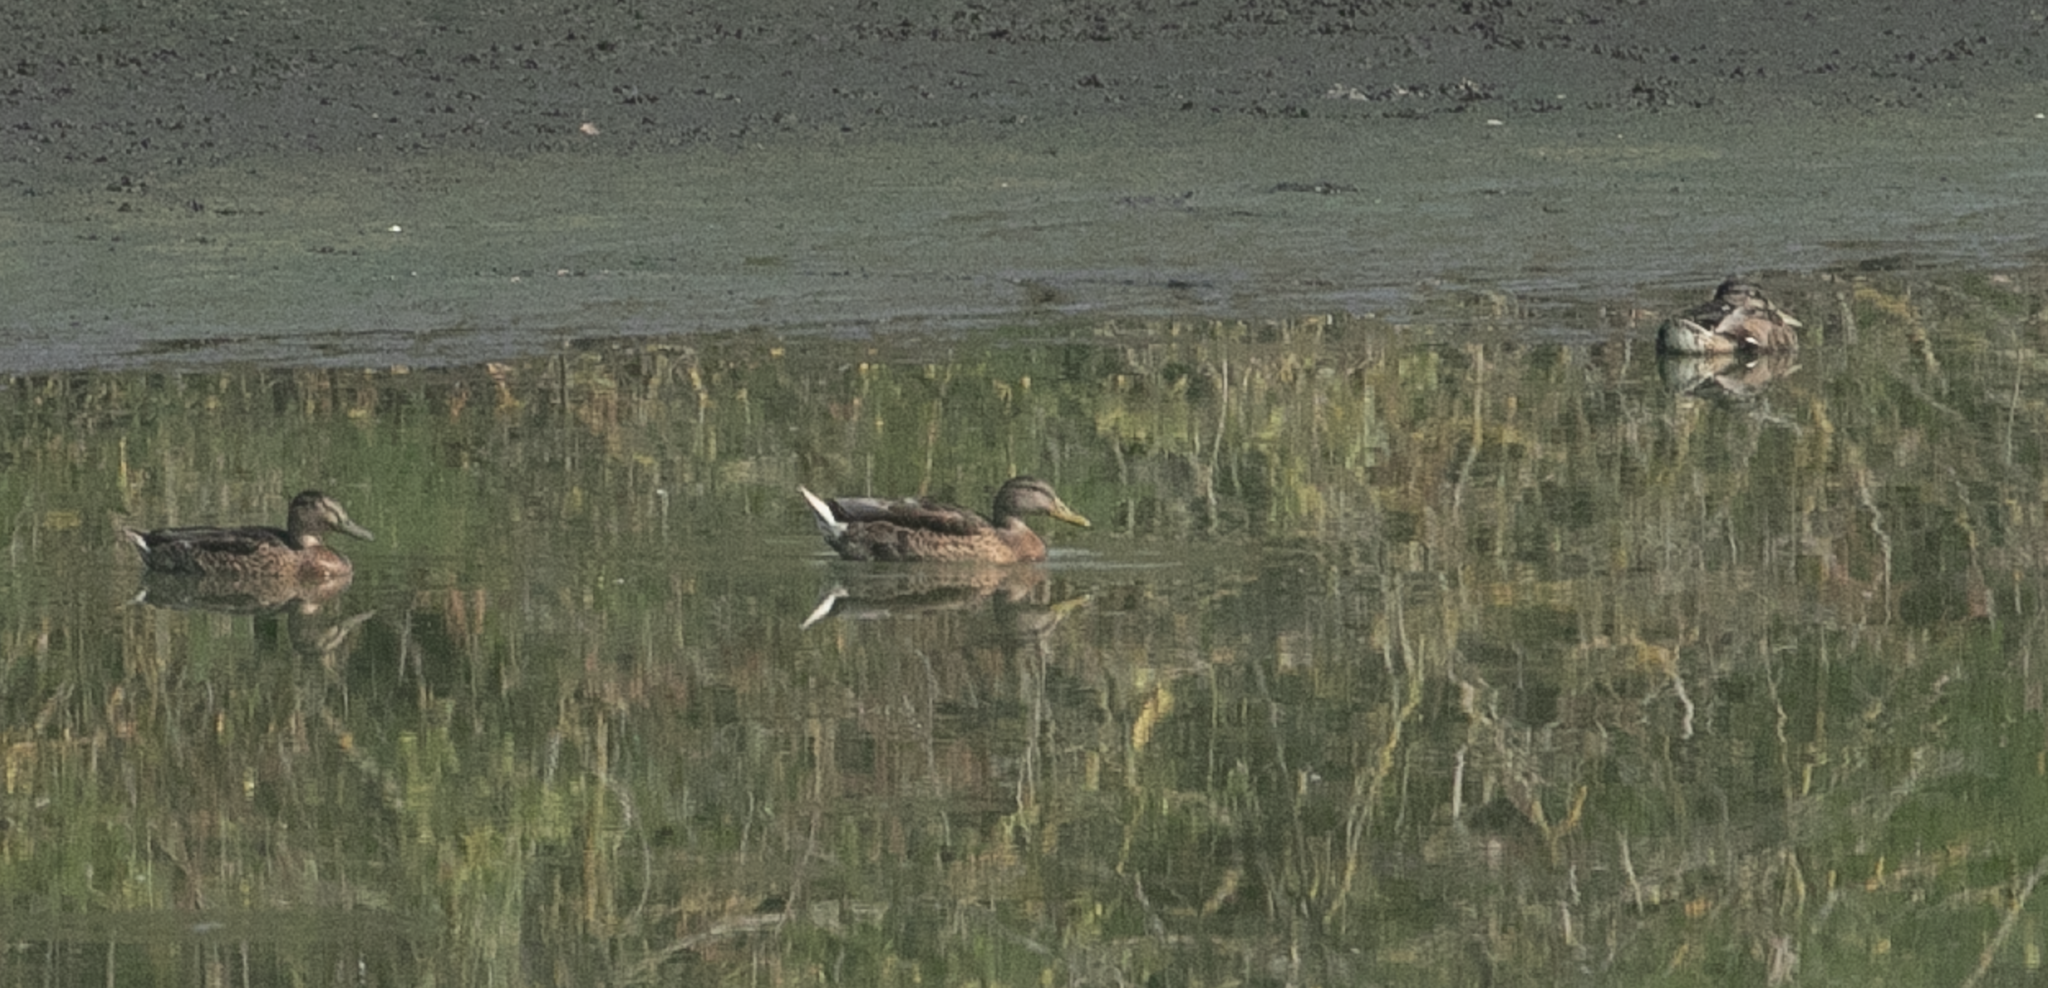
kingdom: Animalia
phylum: Chordata
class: Aves
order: Anseriformes
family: Anatidae
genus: Anas
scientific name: Anas platyrhynchos
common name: Mallard
